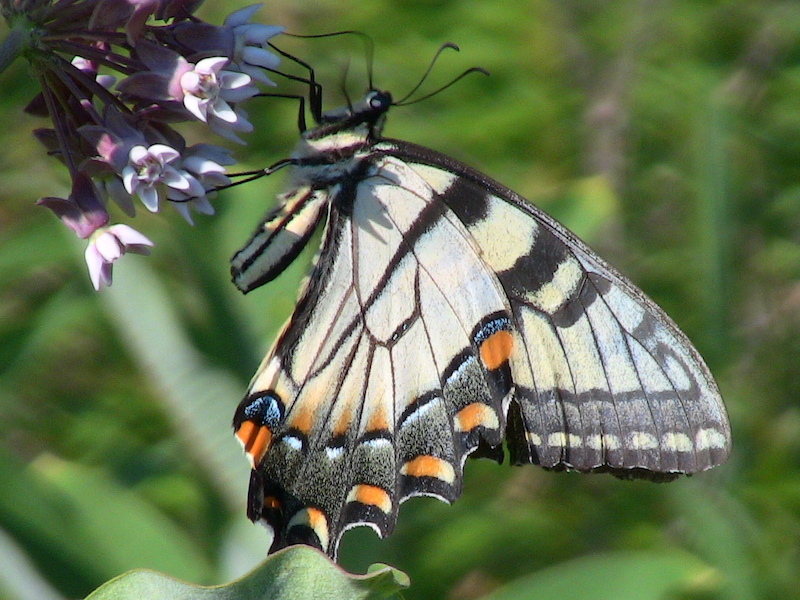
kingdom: Animalia
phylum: Arthropoda
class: Insecta
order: Lepidoptera
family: Papilionidae
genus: Papilio
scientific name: Papilio glaucus
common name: Tiger swallowtail
